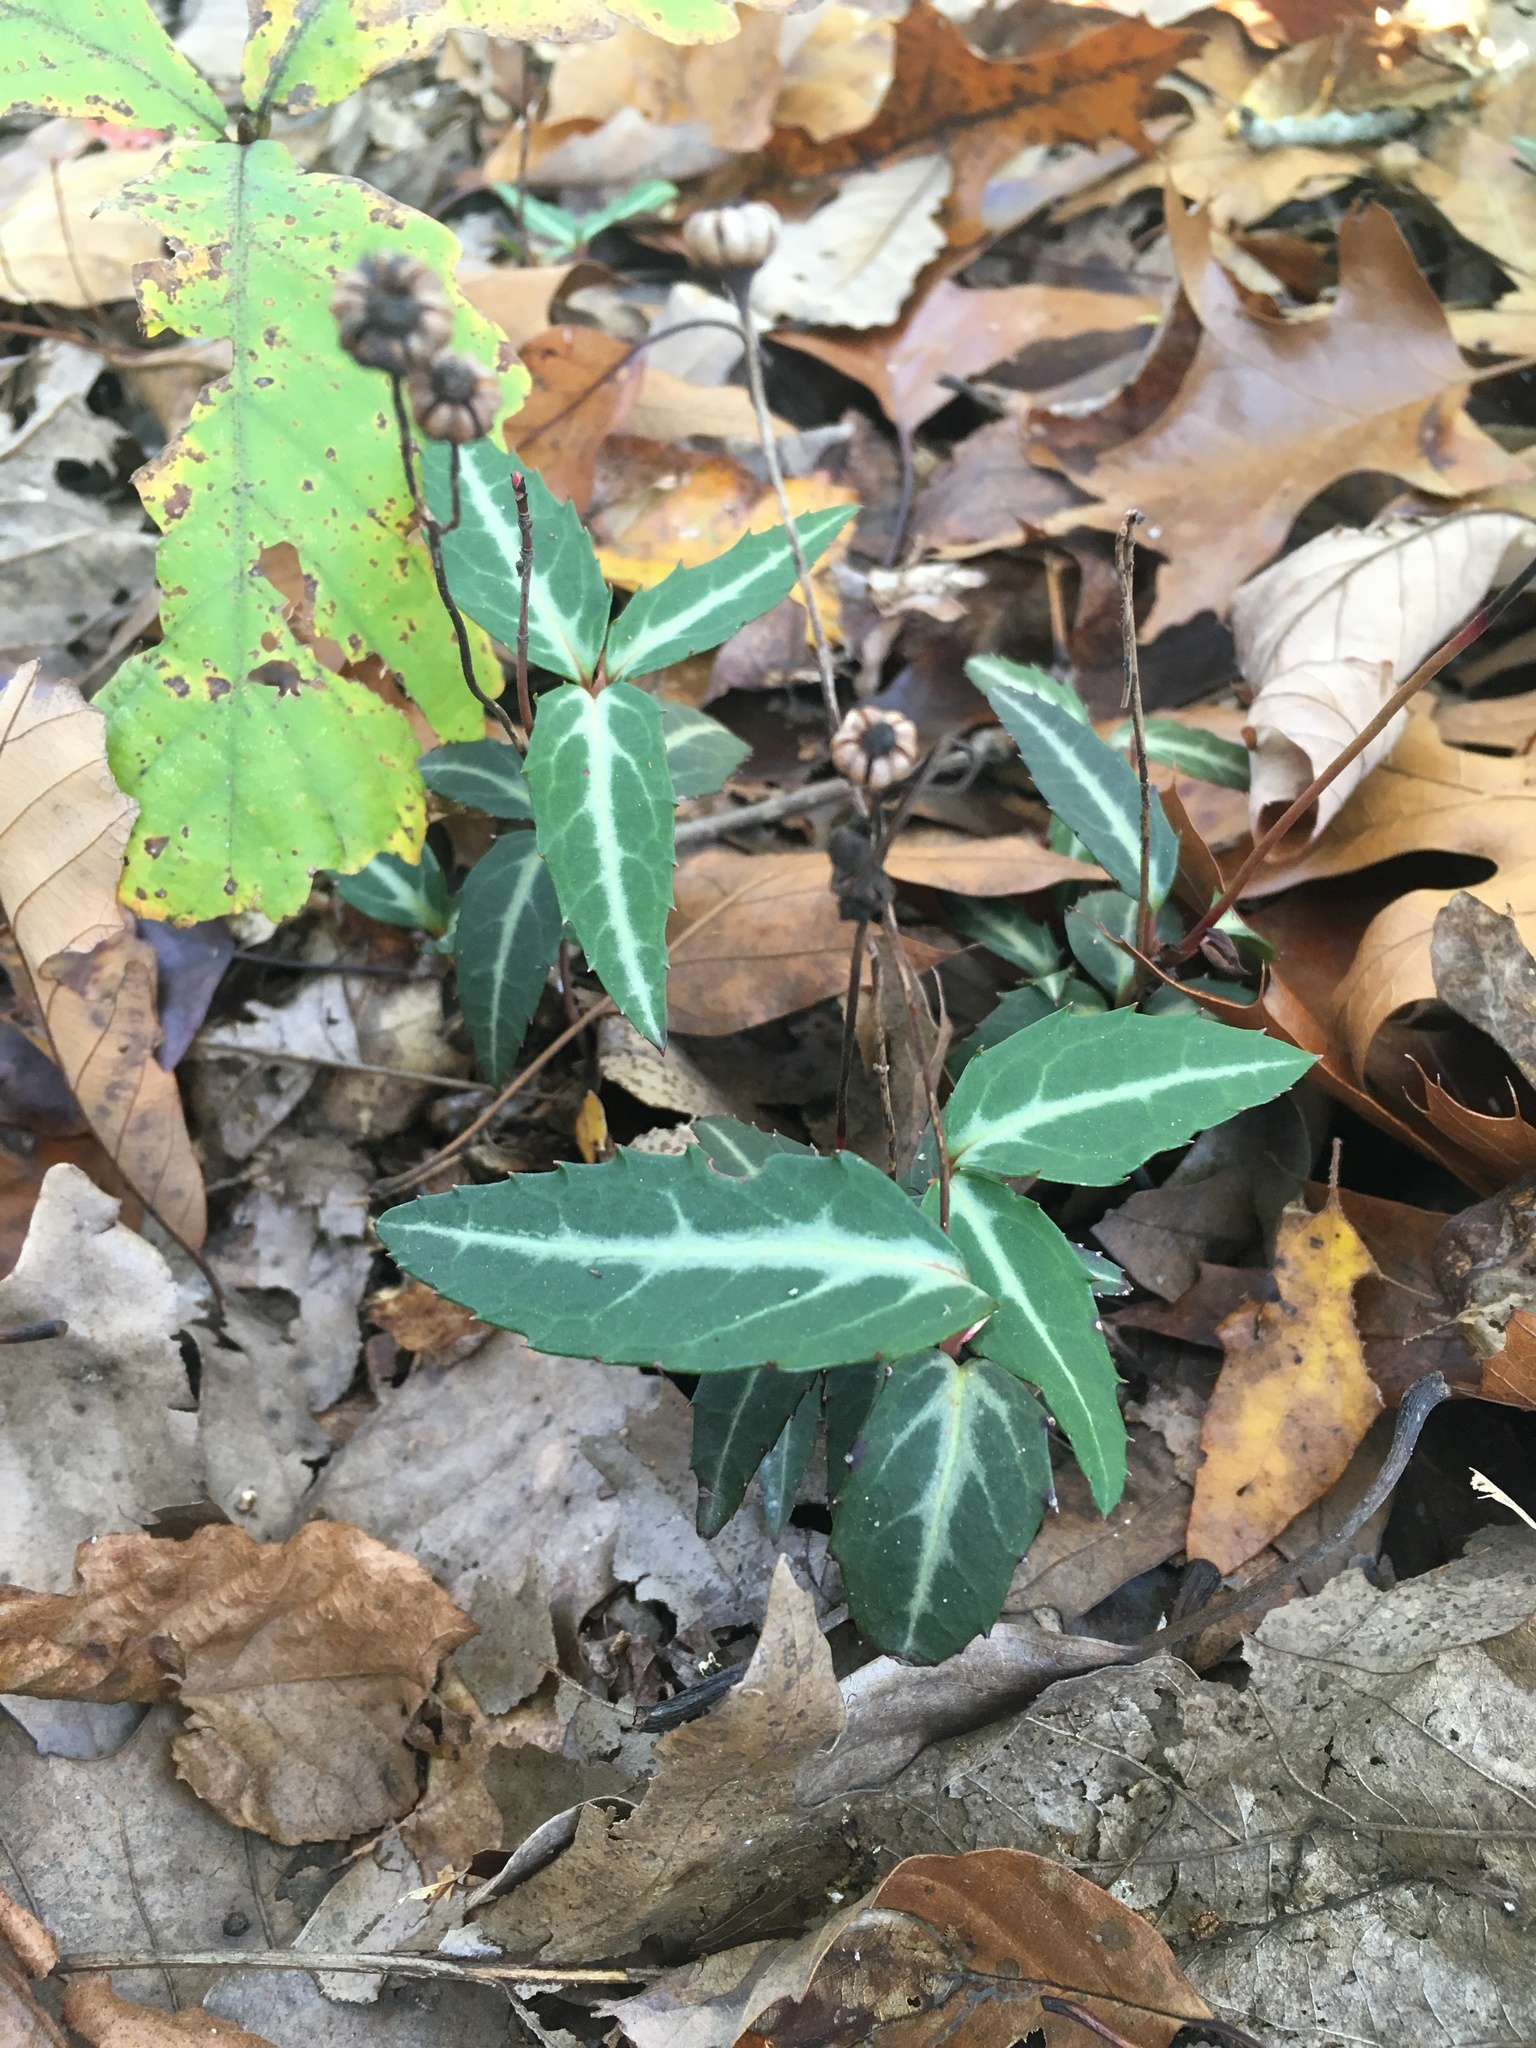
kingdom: Plantae
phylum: Tracheophyta
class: Magnoliopsida
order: Ericales
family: Ericaceae
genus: Chimaphila
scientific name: Chimaphila maculata
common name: Spotted pipsissewa
